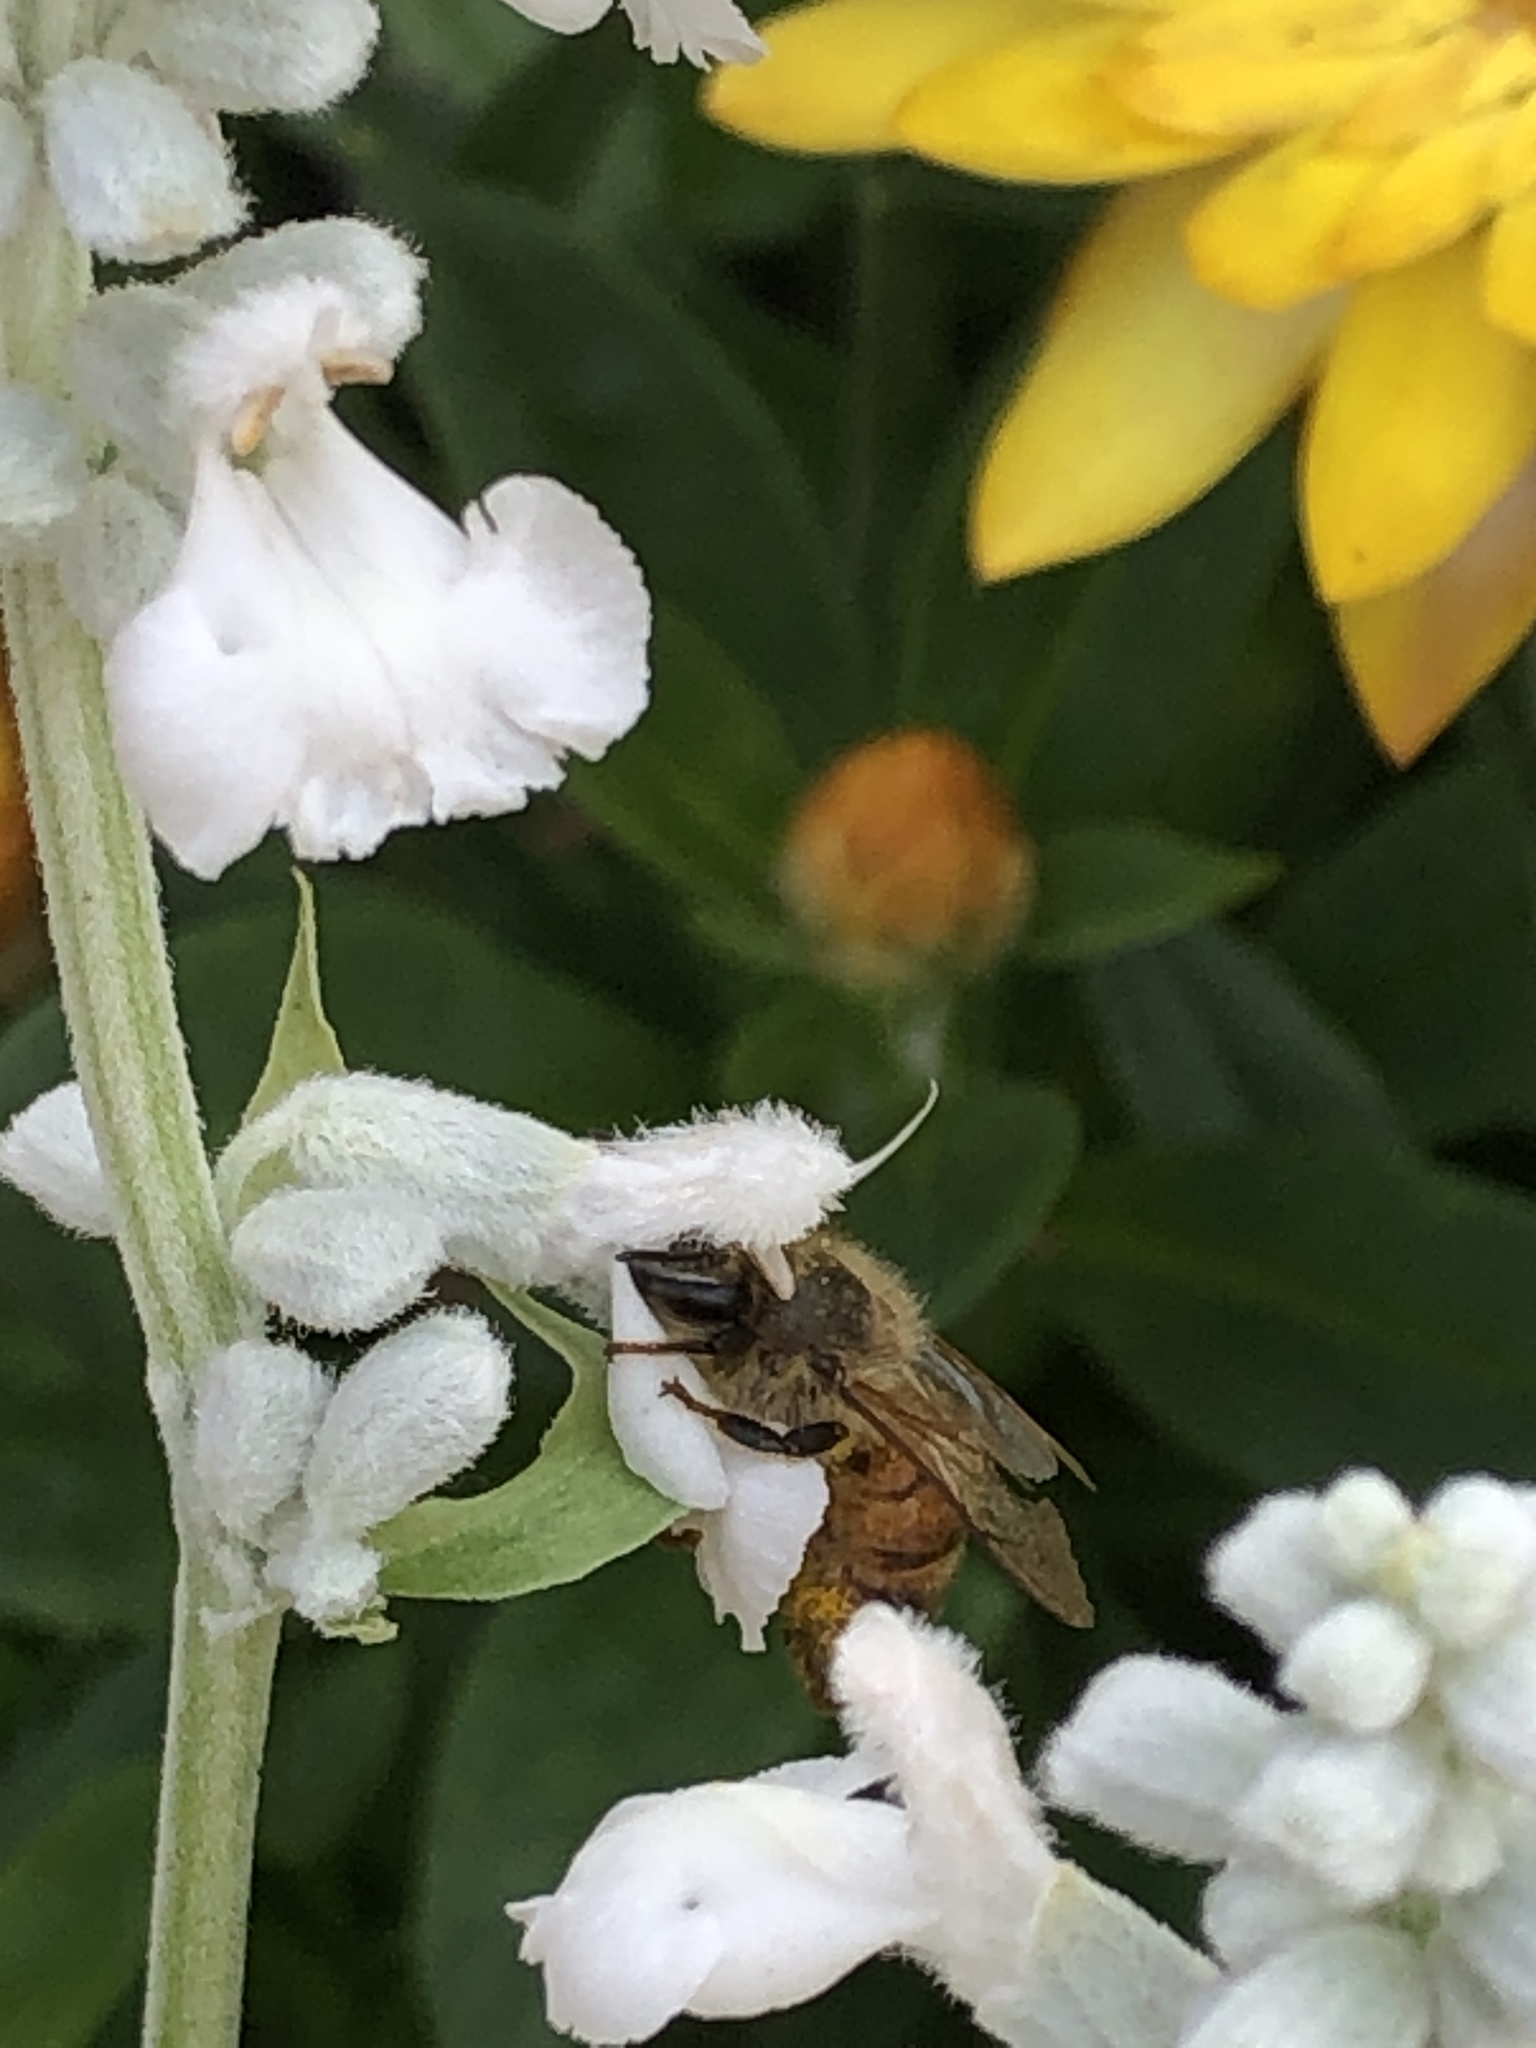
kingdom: Animalia
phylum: Arthropoda
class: Insecta
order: Hymenoptera
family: Apidae
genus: Apis
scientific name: Apis mellifera
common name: Honey bee
